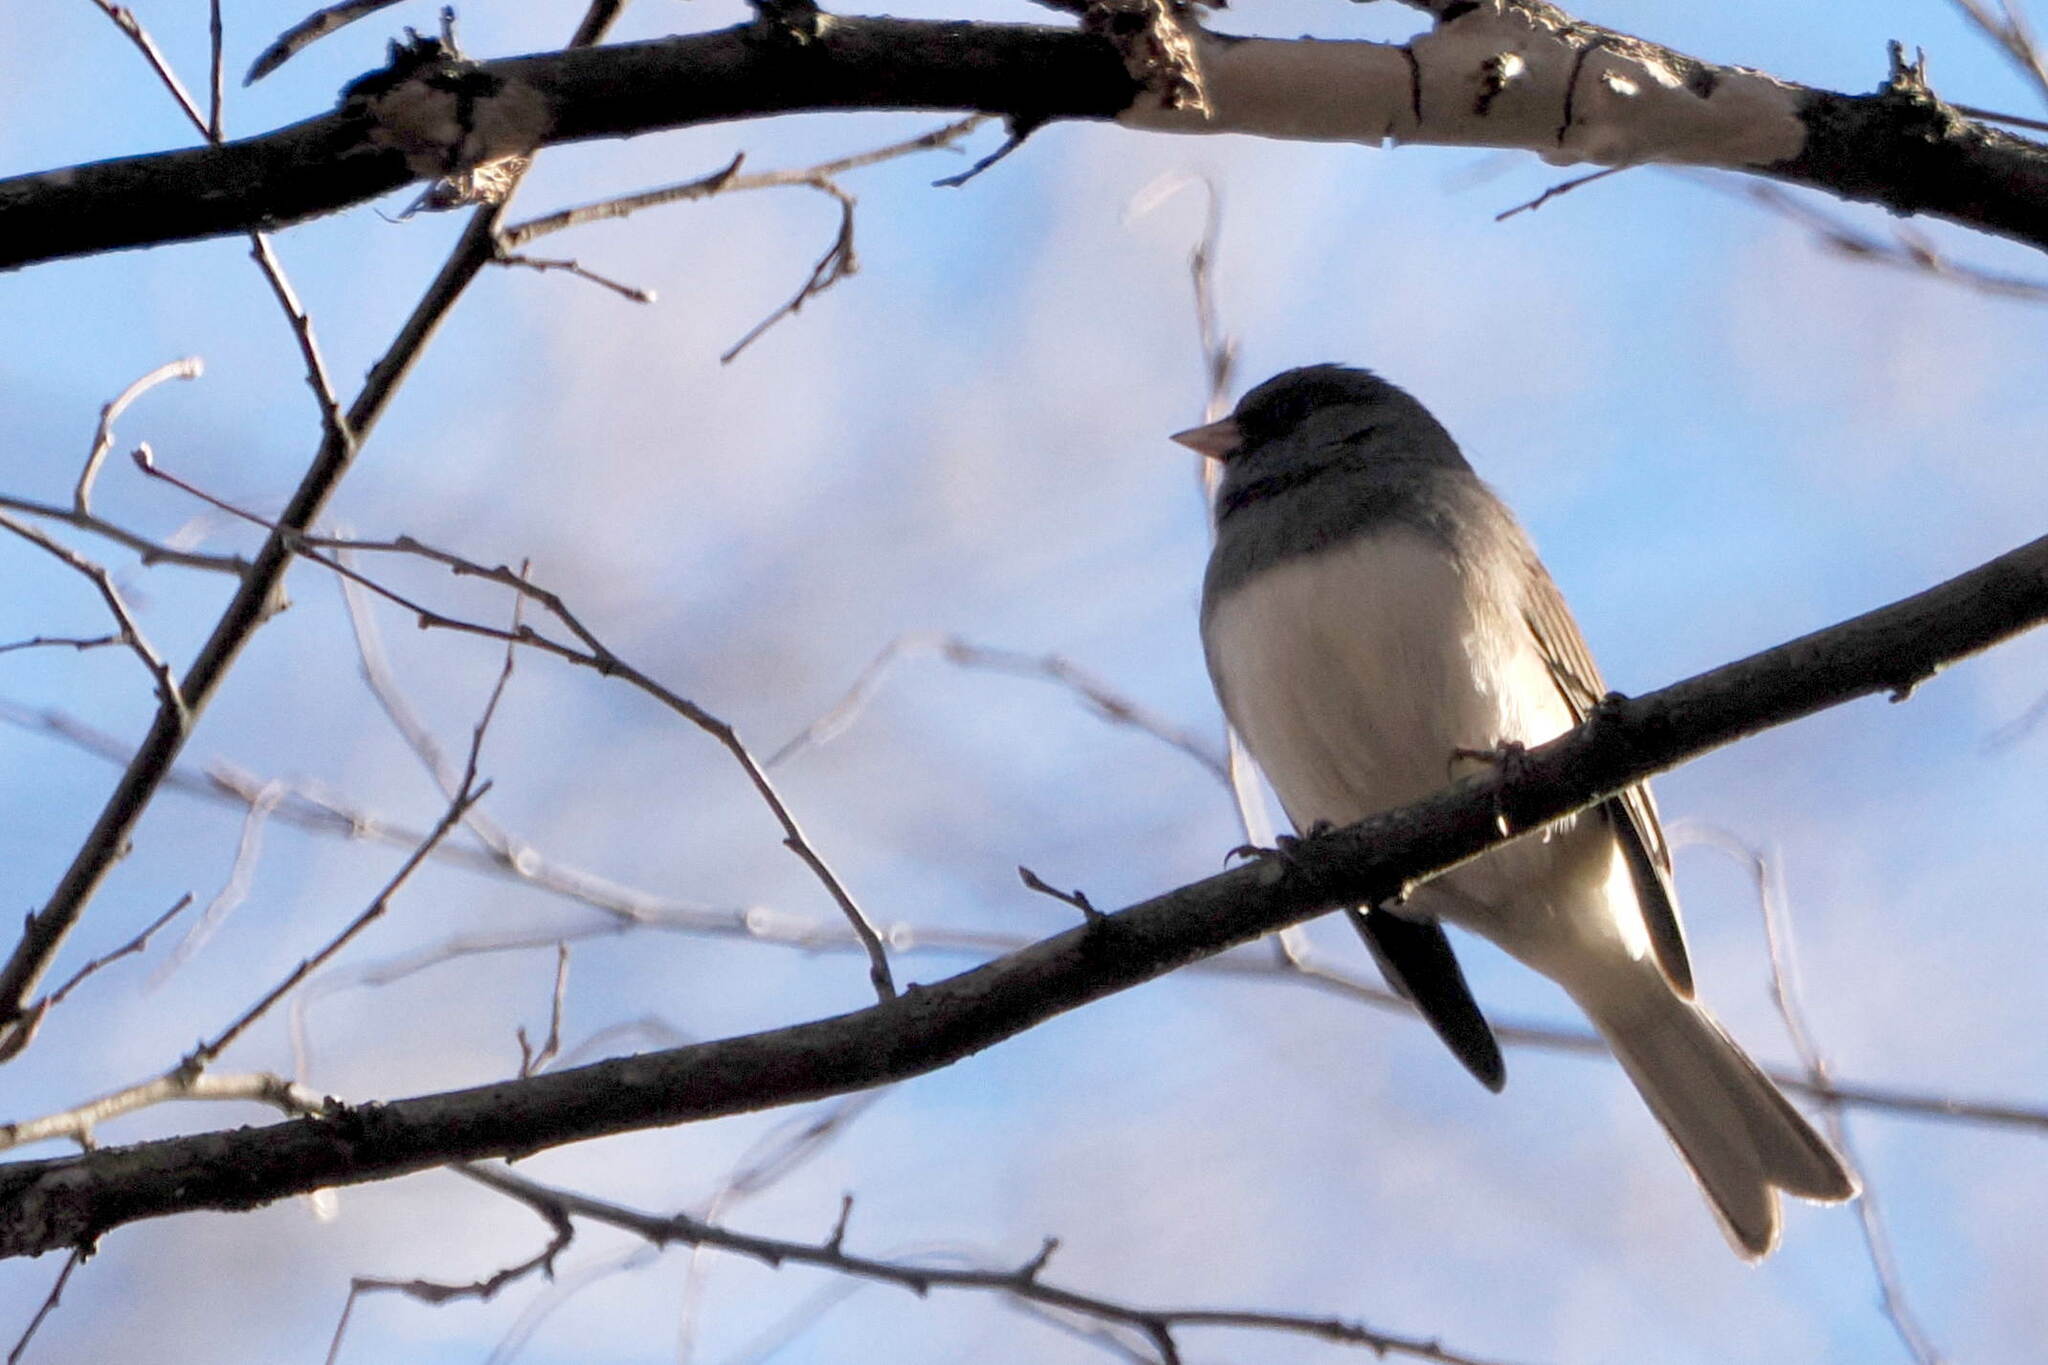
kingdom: Animalia
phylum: Chordata
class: Aves
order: Passeriformes
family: Passerellidae
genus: Junco
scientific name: Junco hyemalis
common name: Dark-eyed junco
